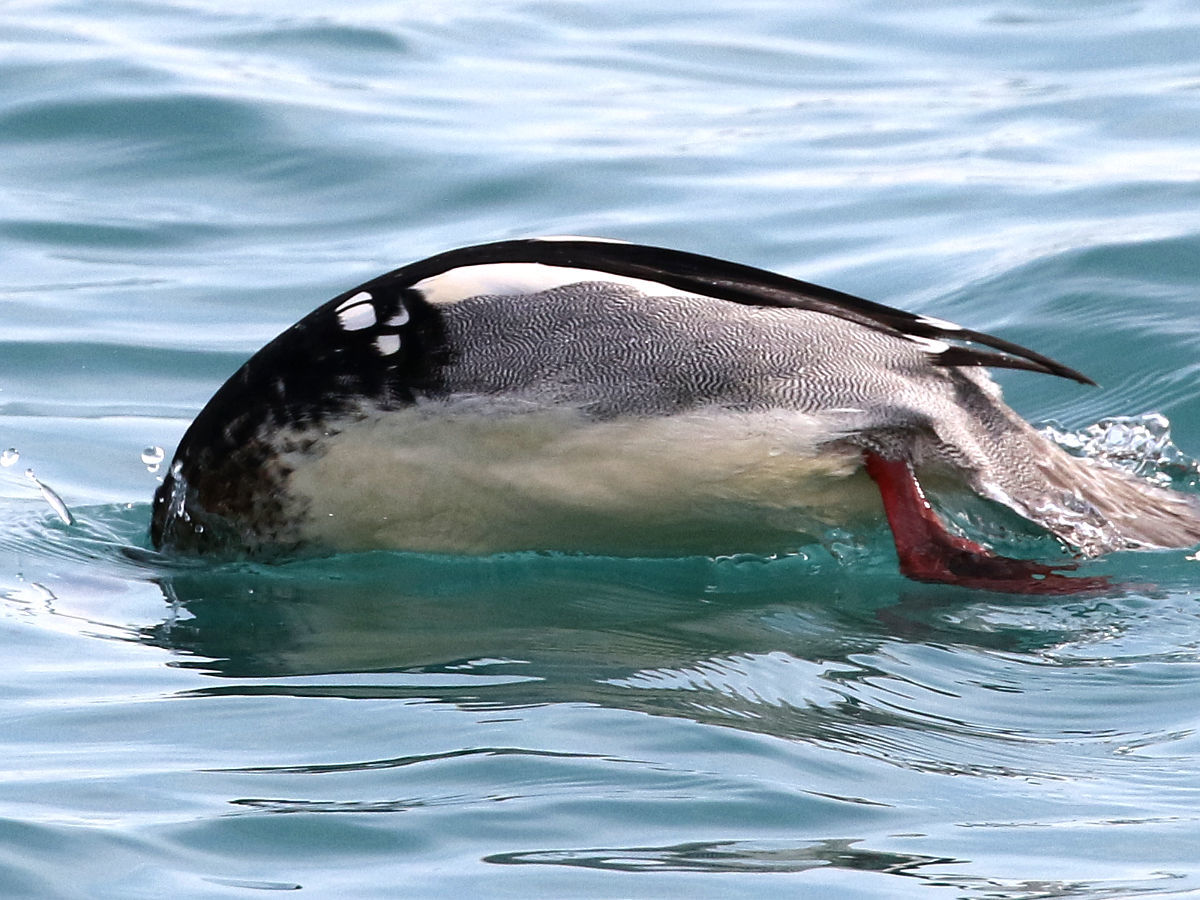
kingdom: Animalia
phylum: Chordata
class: Aves
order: Anseriformes
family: Anatidae
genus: Mergus
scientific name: Mergus serrator
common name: Red-breasted merganser
